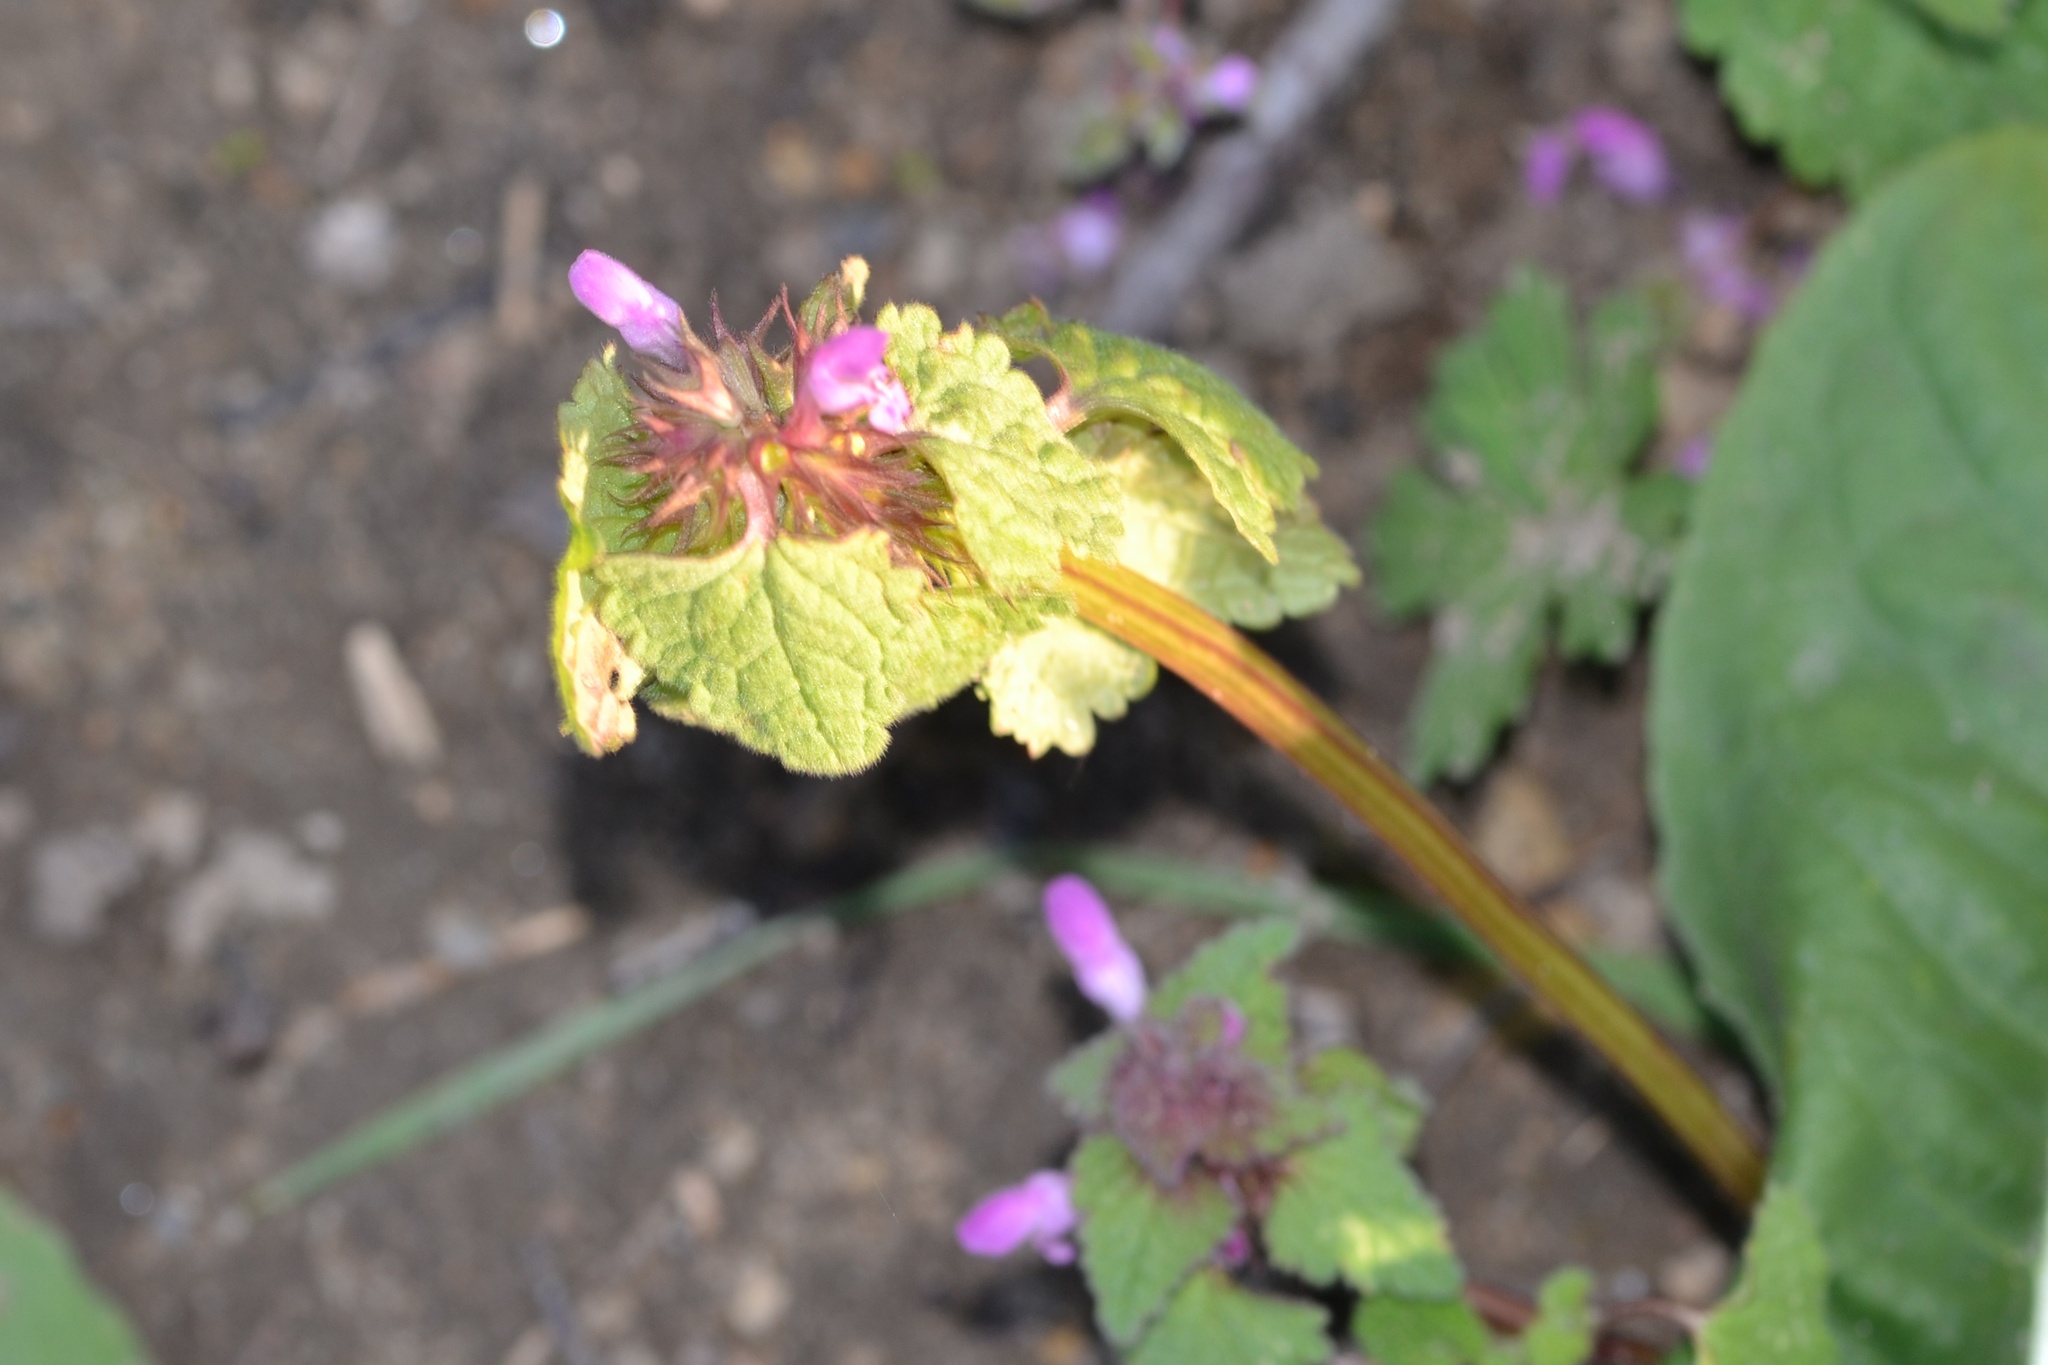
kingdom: Plantae
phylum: Tracheophyta
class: Magnoliopsida
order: Lamiales
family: Lamiaceae
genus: Lamium
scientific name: Lamium purpureum
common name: Red dead-nettle
